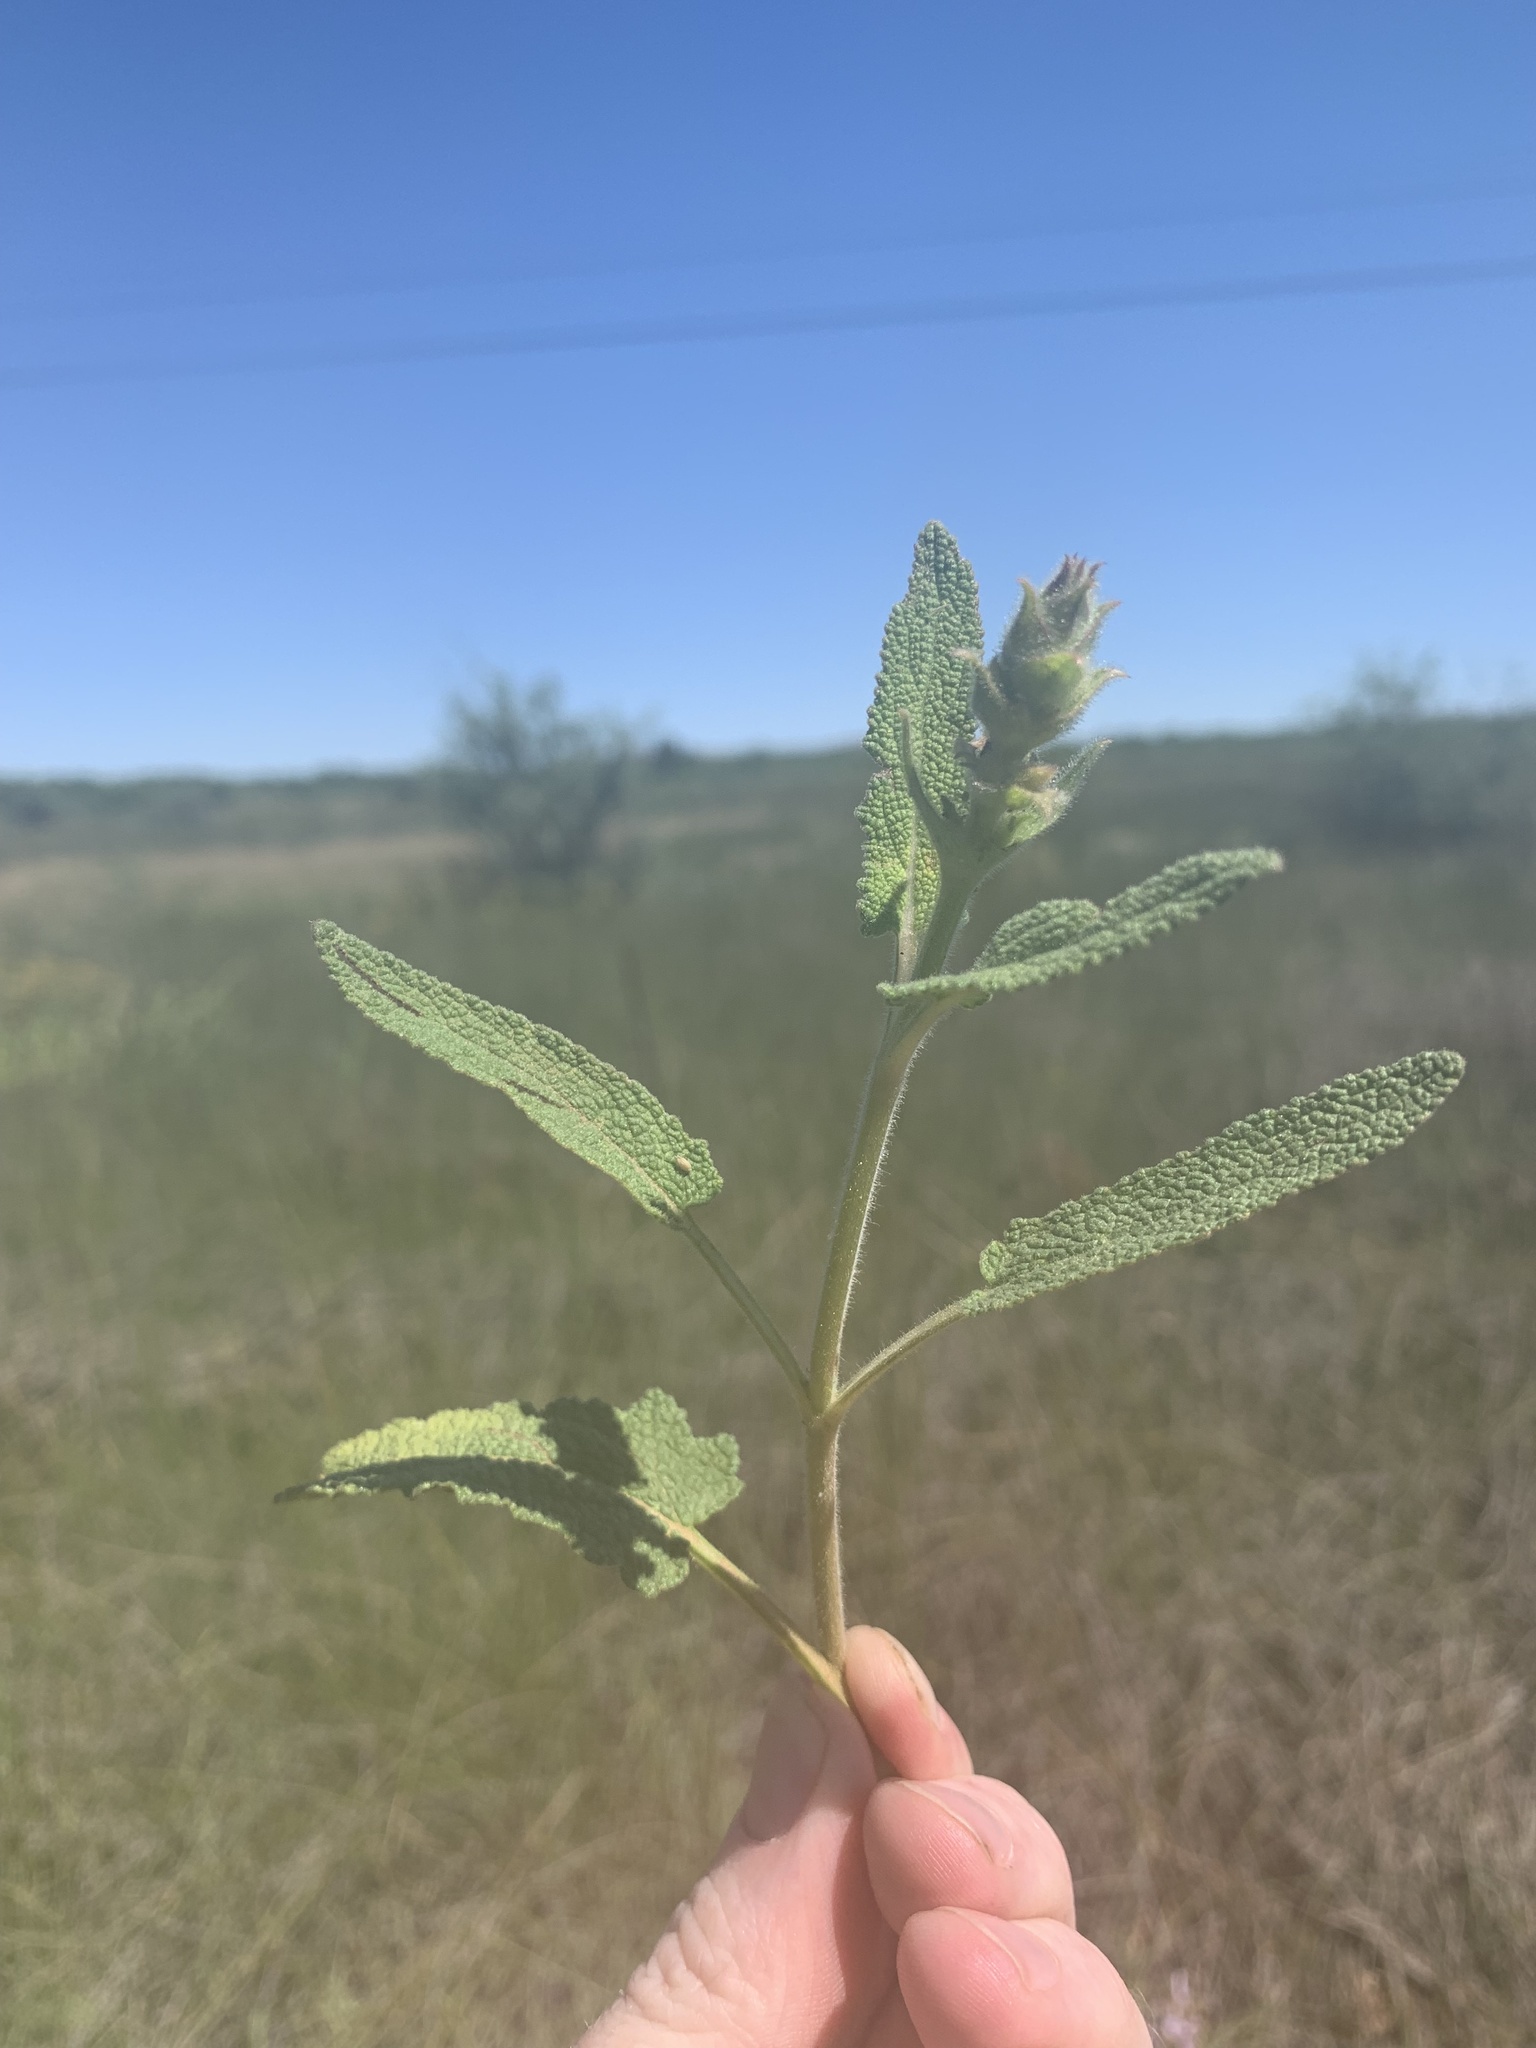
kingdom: Plantae
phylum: Tracheophyta
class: Magnoliopsida
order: Lamiales
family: Lamiaceae
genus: Salvia
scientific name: Salvia disermas
